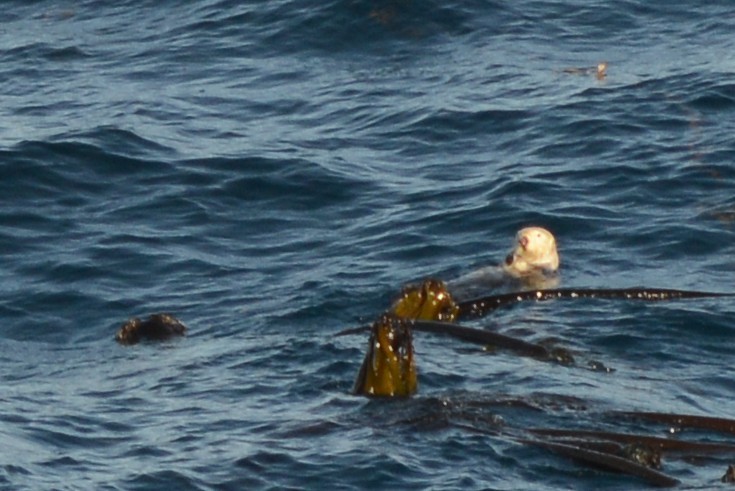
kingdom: Animalia
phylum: Chordata
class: Mammalia
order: Carnivora
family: Mustelidae
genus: Enhydra
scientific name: Enhydra lutris
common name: Sea otter
